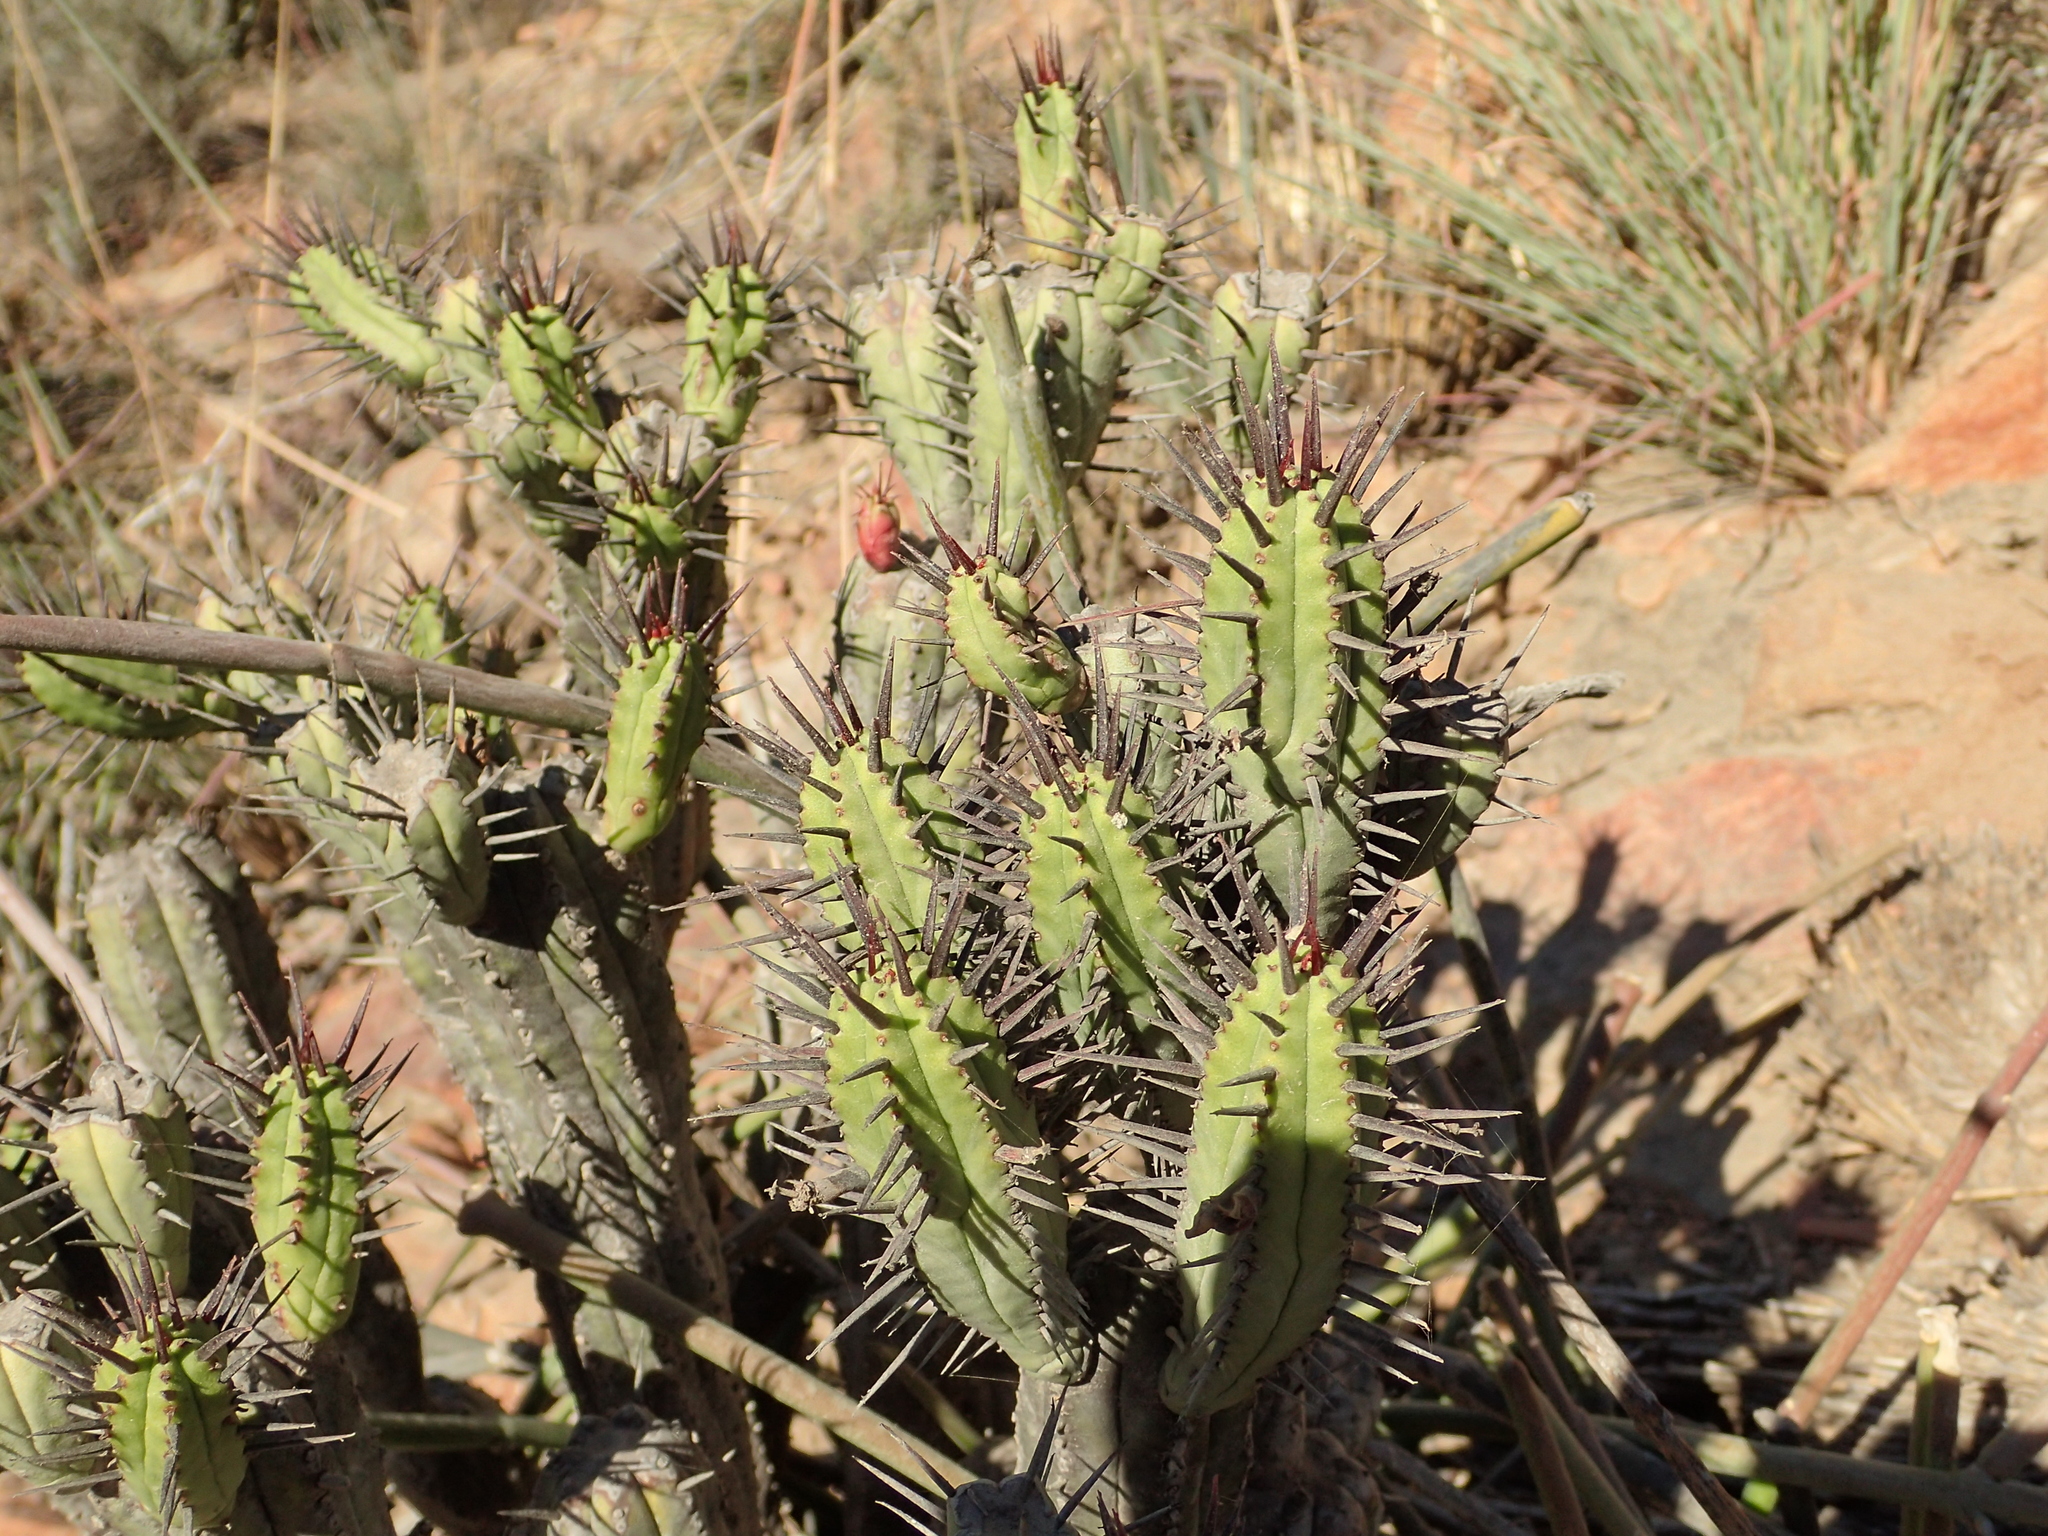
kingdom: Plantae
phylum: Tracheophyta
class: Magnoliopsida
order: Malpighiales
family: Euphorbiaceae
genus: Euphorbia
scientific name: Euphorbia heptagona
